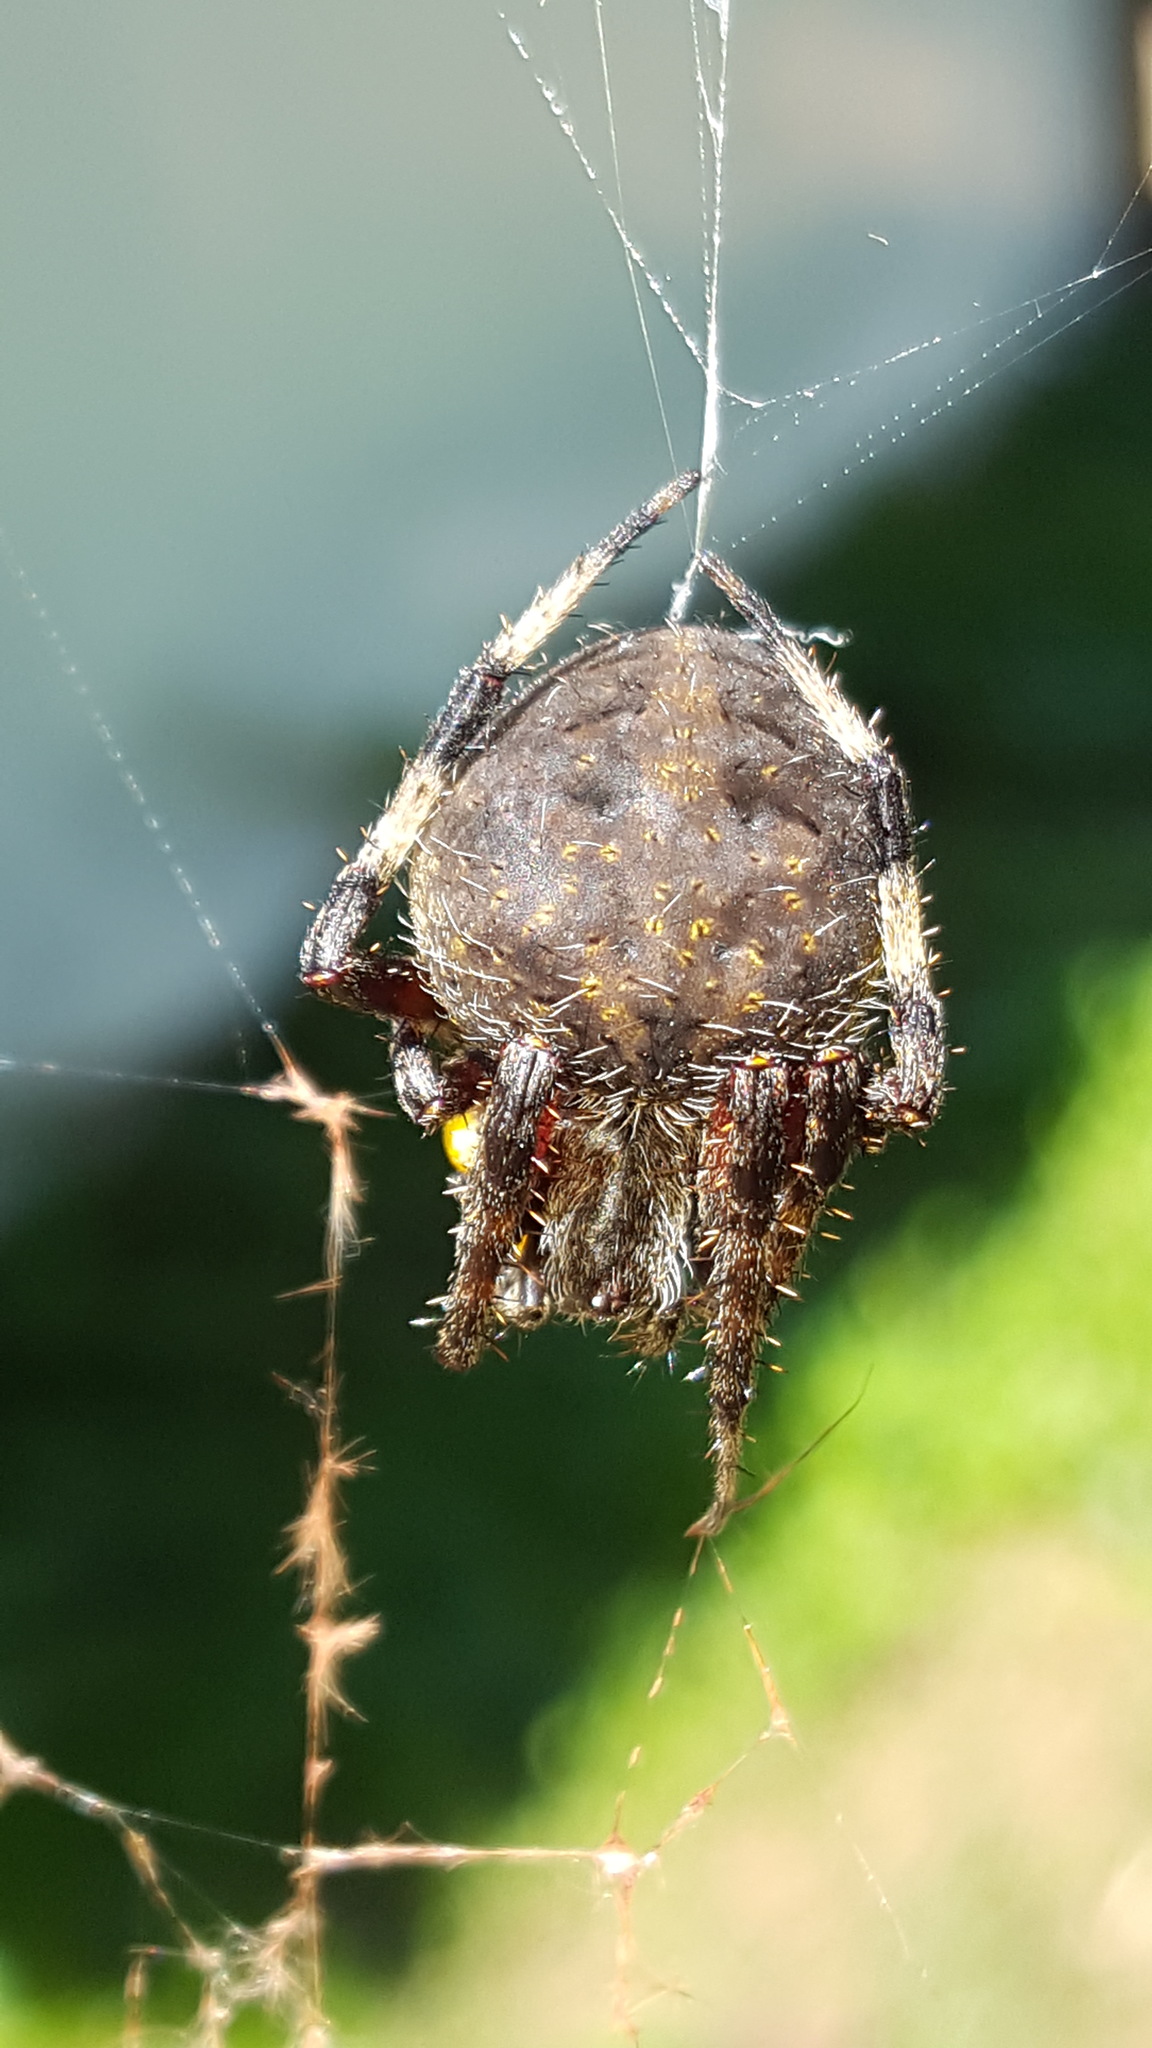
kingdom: Animalia
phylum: Arthropoda
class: Arachnida
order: Araneae
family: Araneidae
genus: Neoscona
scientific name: Neoscona crucifera
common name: Spotted orbweaver
